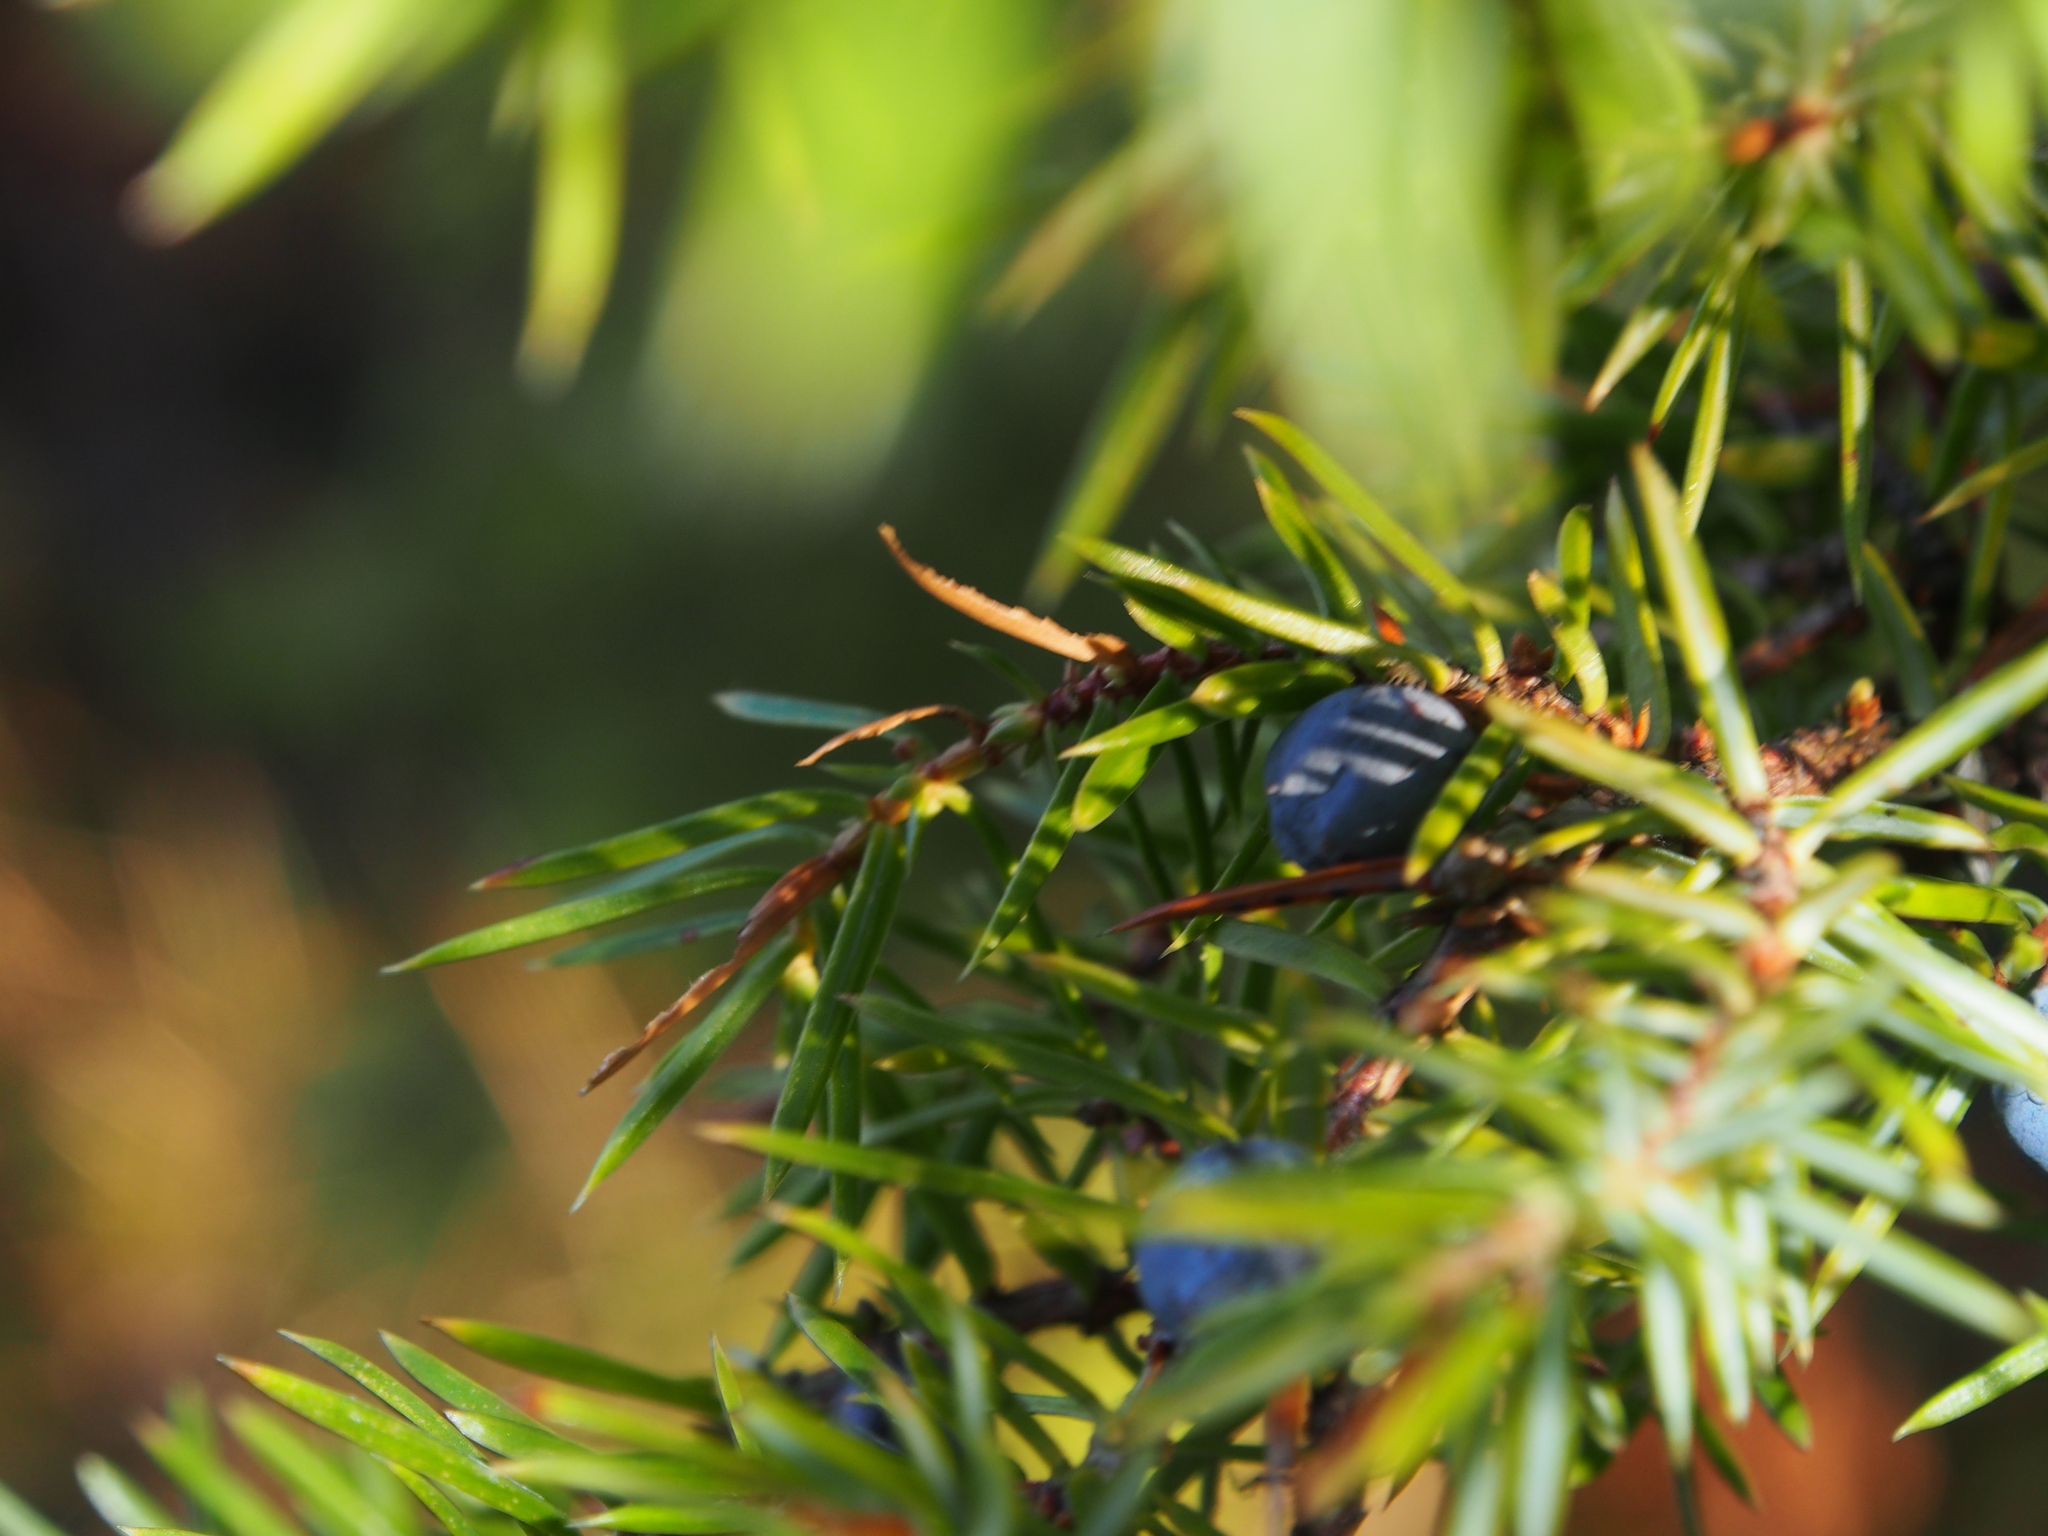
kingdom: Plantae
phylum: Tracheophyta
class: Pinopsida
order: Pinales
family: Cupressaceae
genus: Juniperus
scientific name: Juniperus communis
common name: Common juniper
